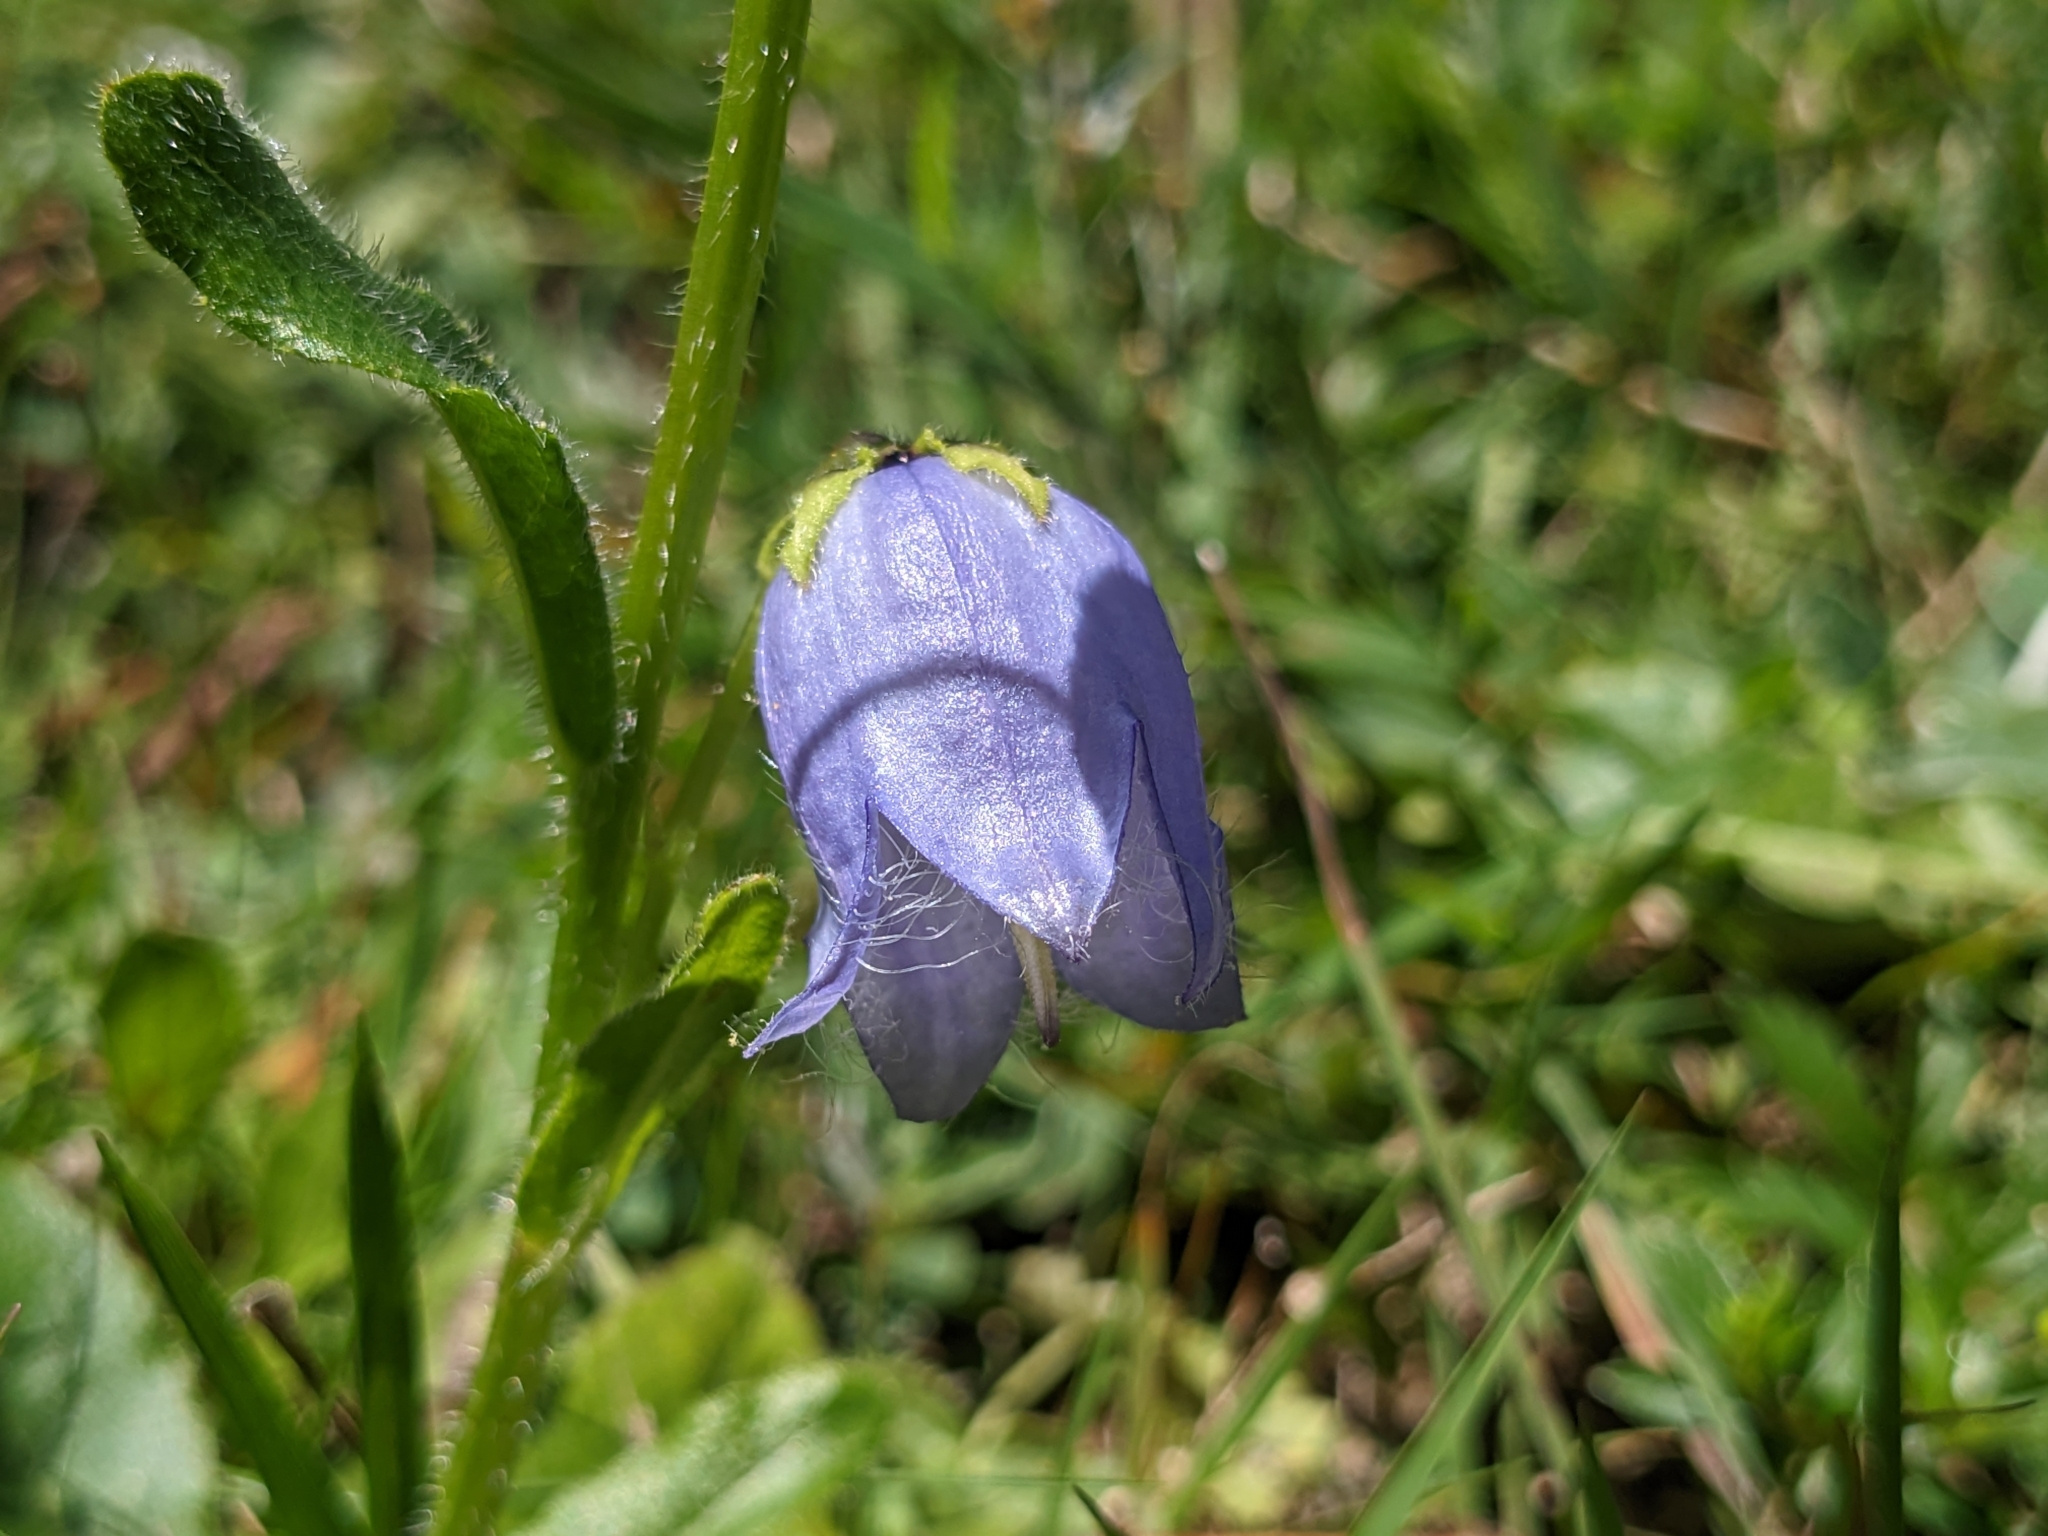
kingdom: Plantae
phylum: Tracheophyta
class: Magnoliopsida
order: Asterales
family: Campanulaceae
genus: Campanula
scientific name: Campanula barbata
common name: Bearded bellflower
